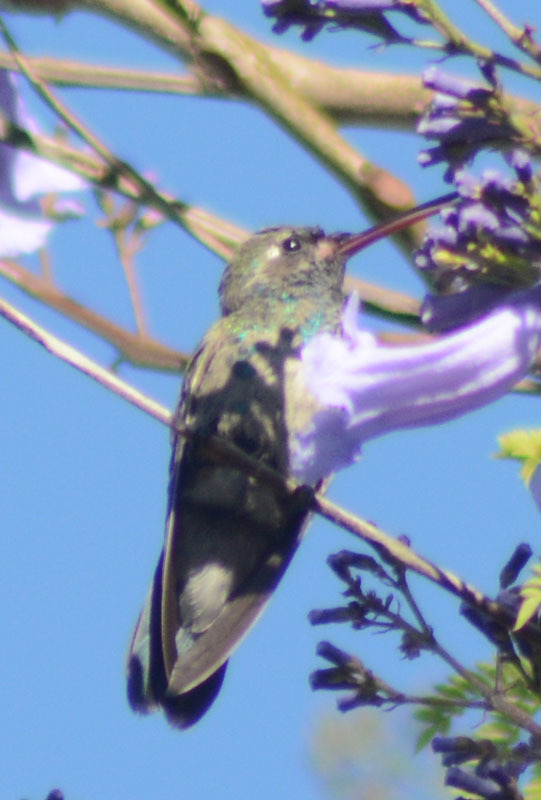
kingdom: Animalia
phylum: Chordata
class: Aves
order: Apodiformes
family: Trochilidae
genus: Cynanthus
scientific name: Cynanthus latirostris
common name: Broad-billed hummingbird
